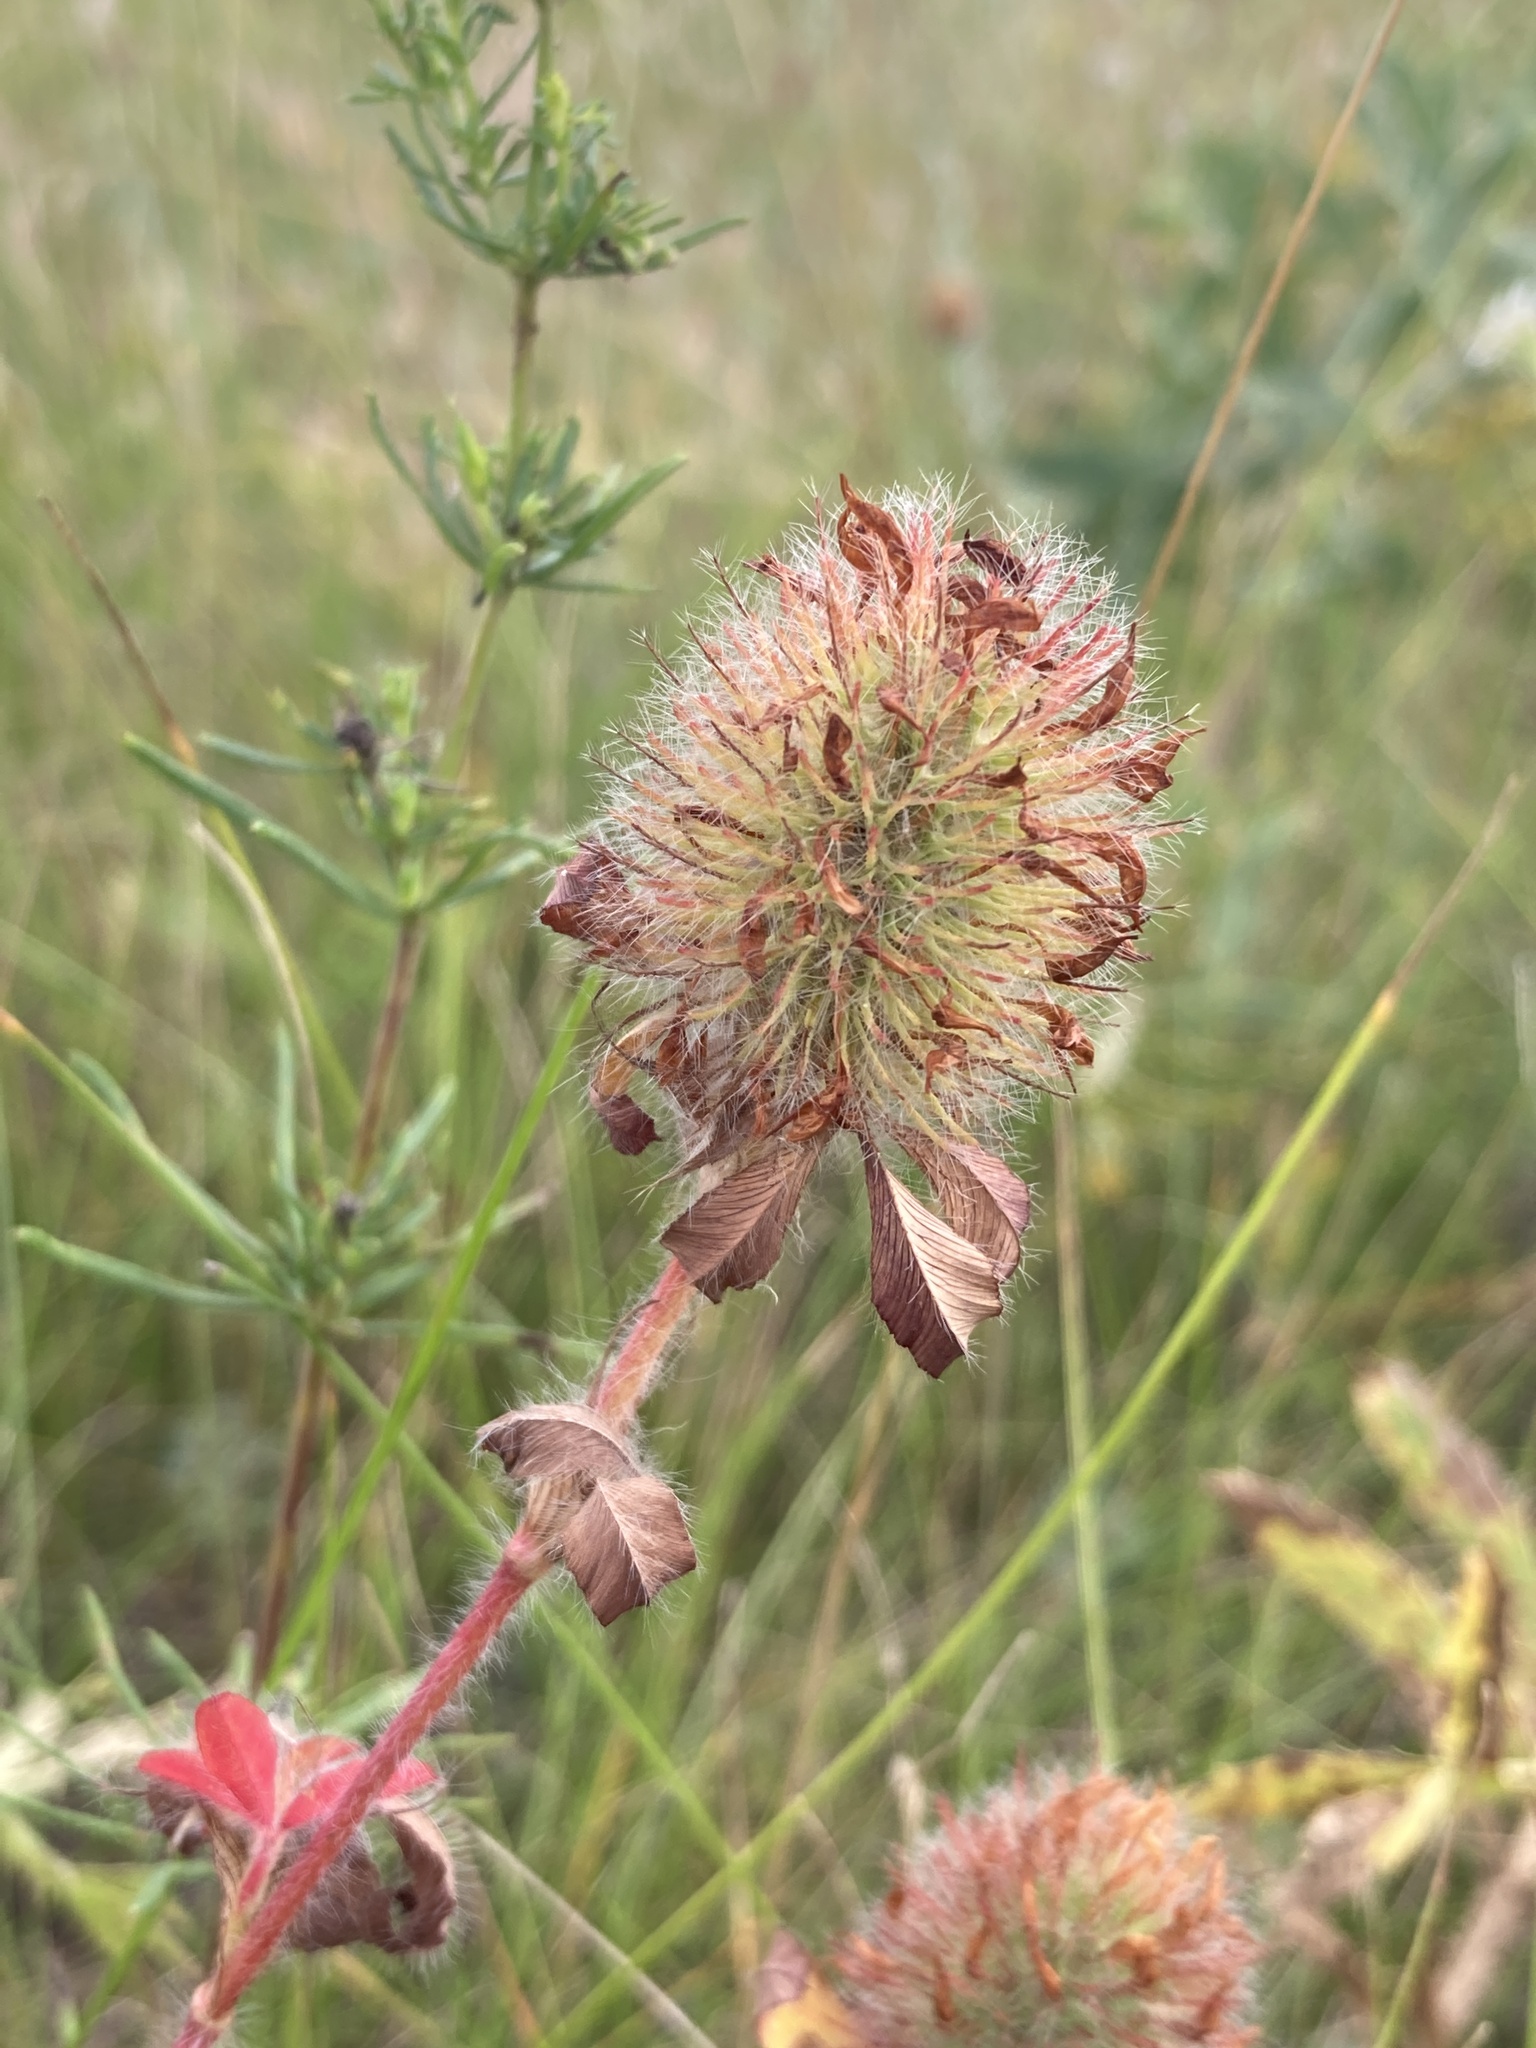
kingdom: Plantae
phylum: Tracheophyta
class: Magnoliopsida
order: Fabales
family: Fabaceae
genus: Trifolium
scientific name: Trifolium diffusum
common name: Diffuse clover
